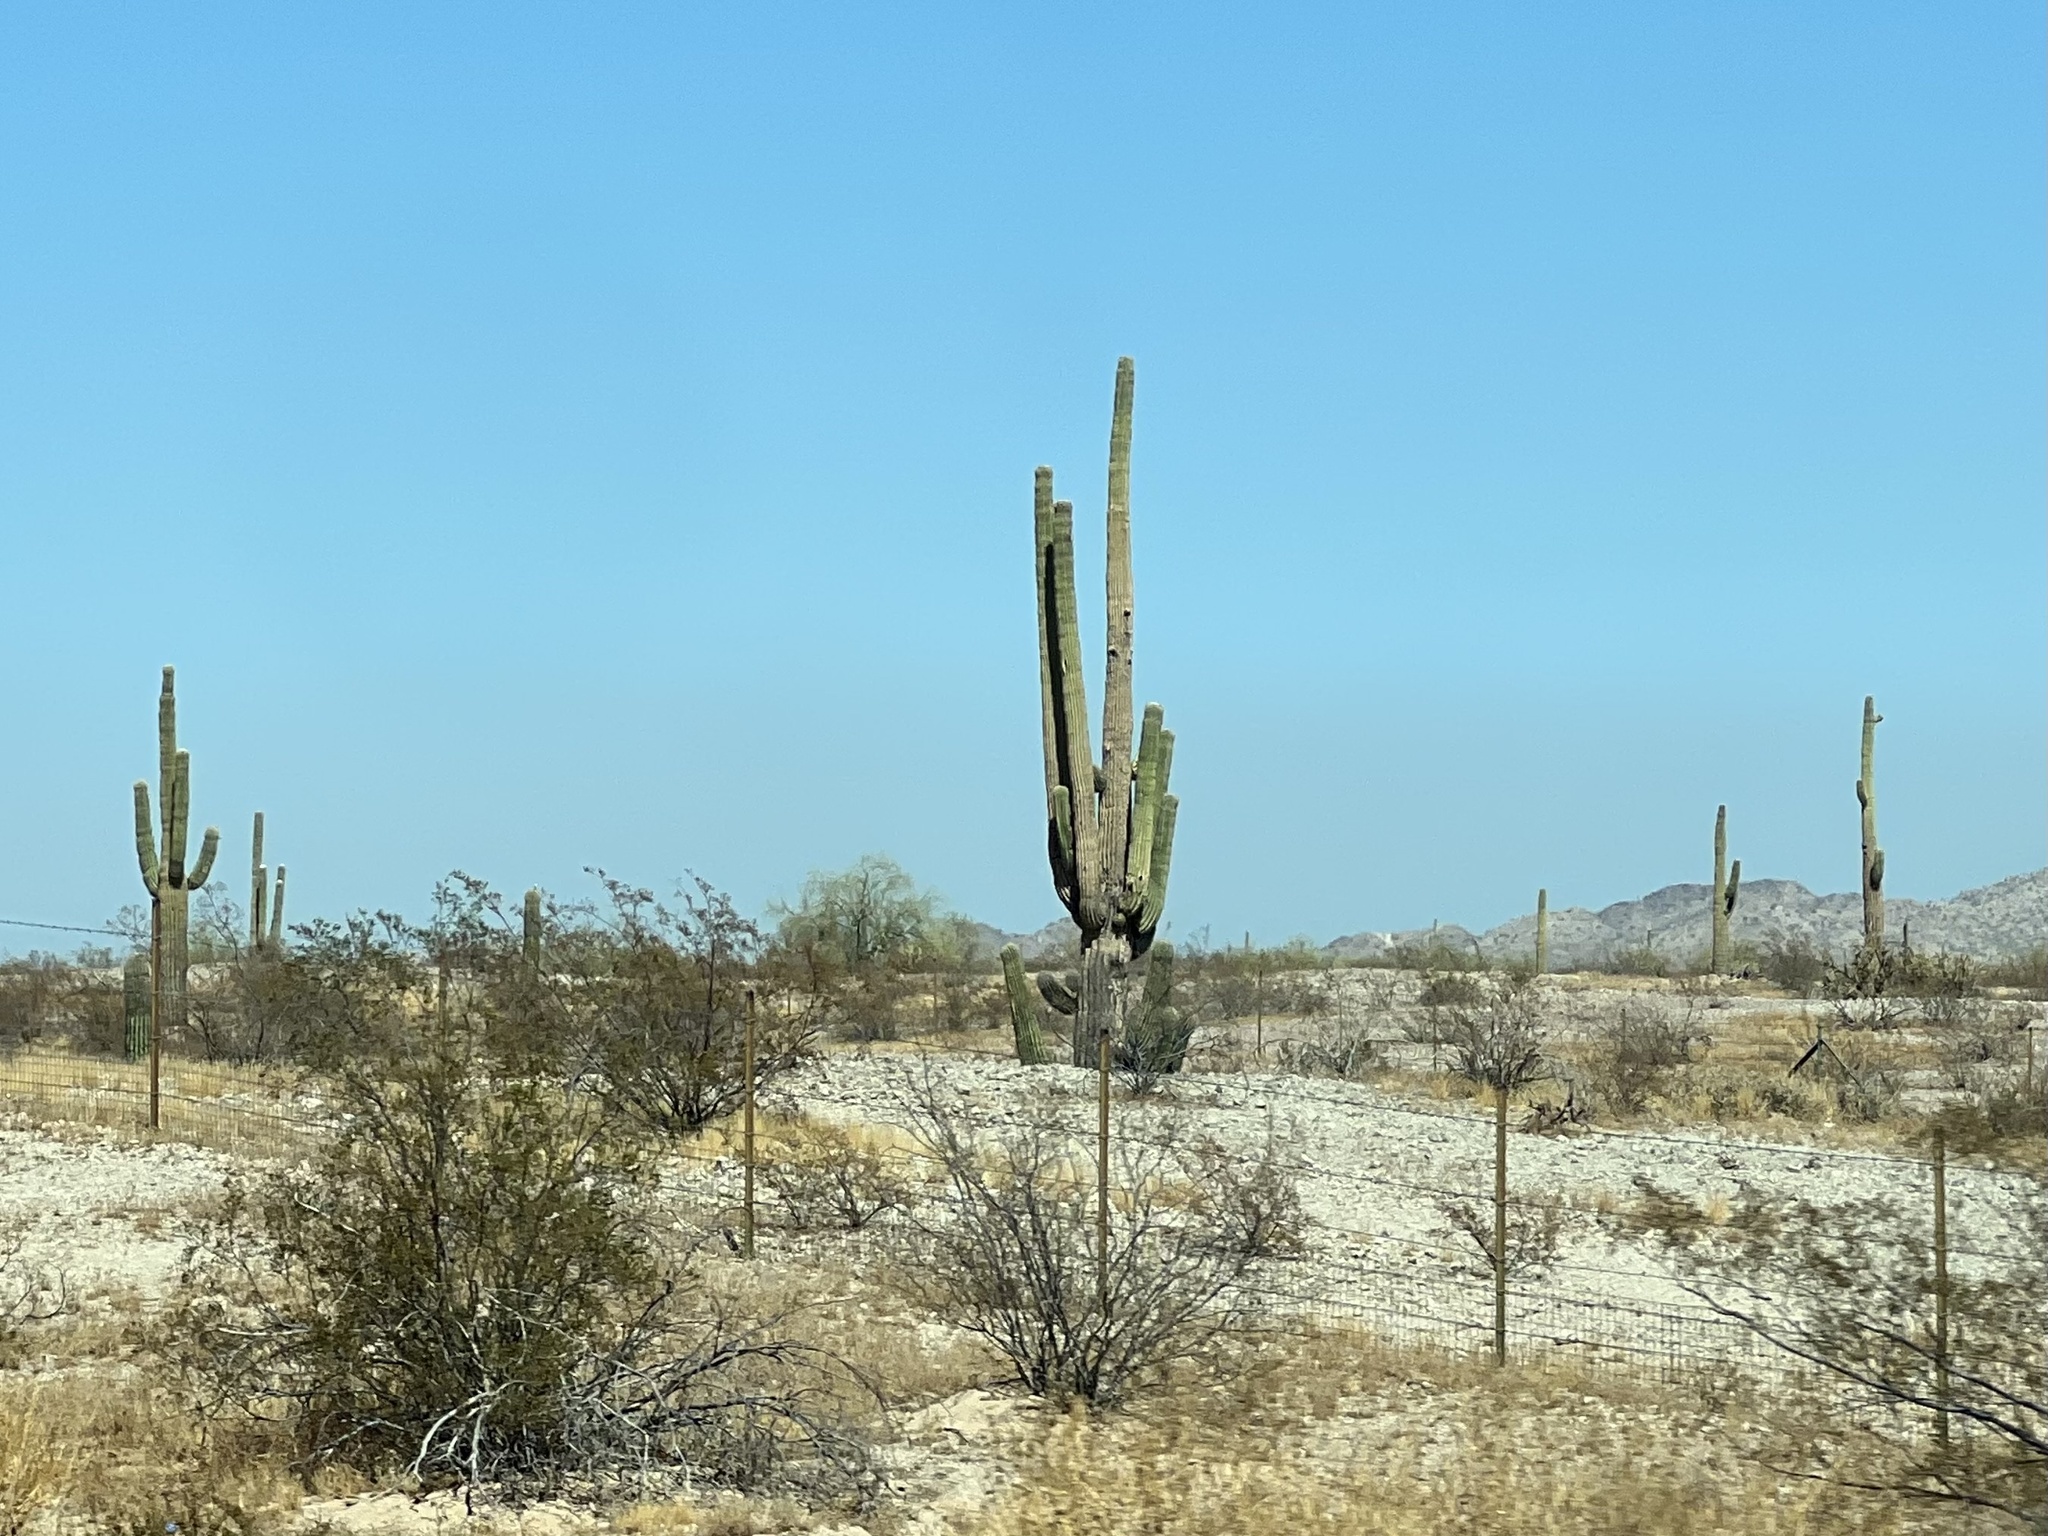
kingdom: Plantae
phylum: Tracheophyta
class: Magnoliopsida
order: Caryophyllales
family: Cactaceae
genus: Carnegiea
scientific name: Carnegiea gigantea
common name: Saguaro
